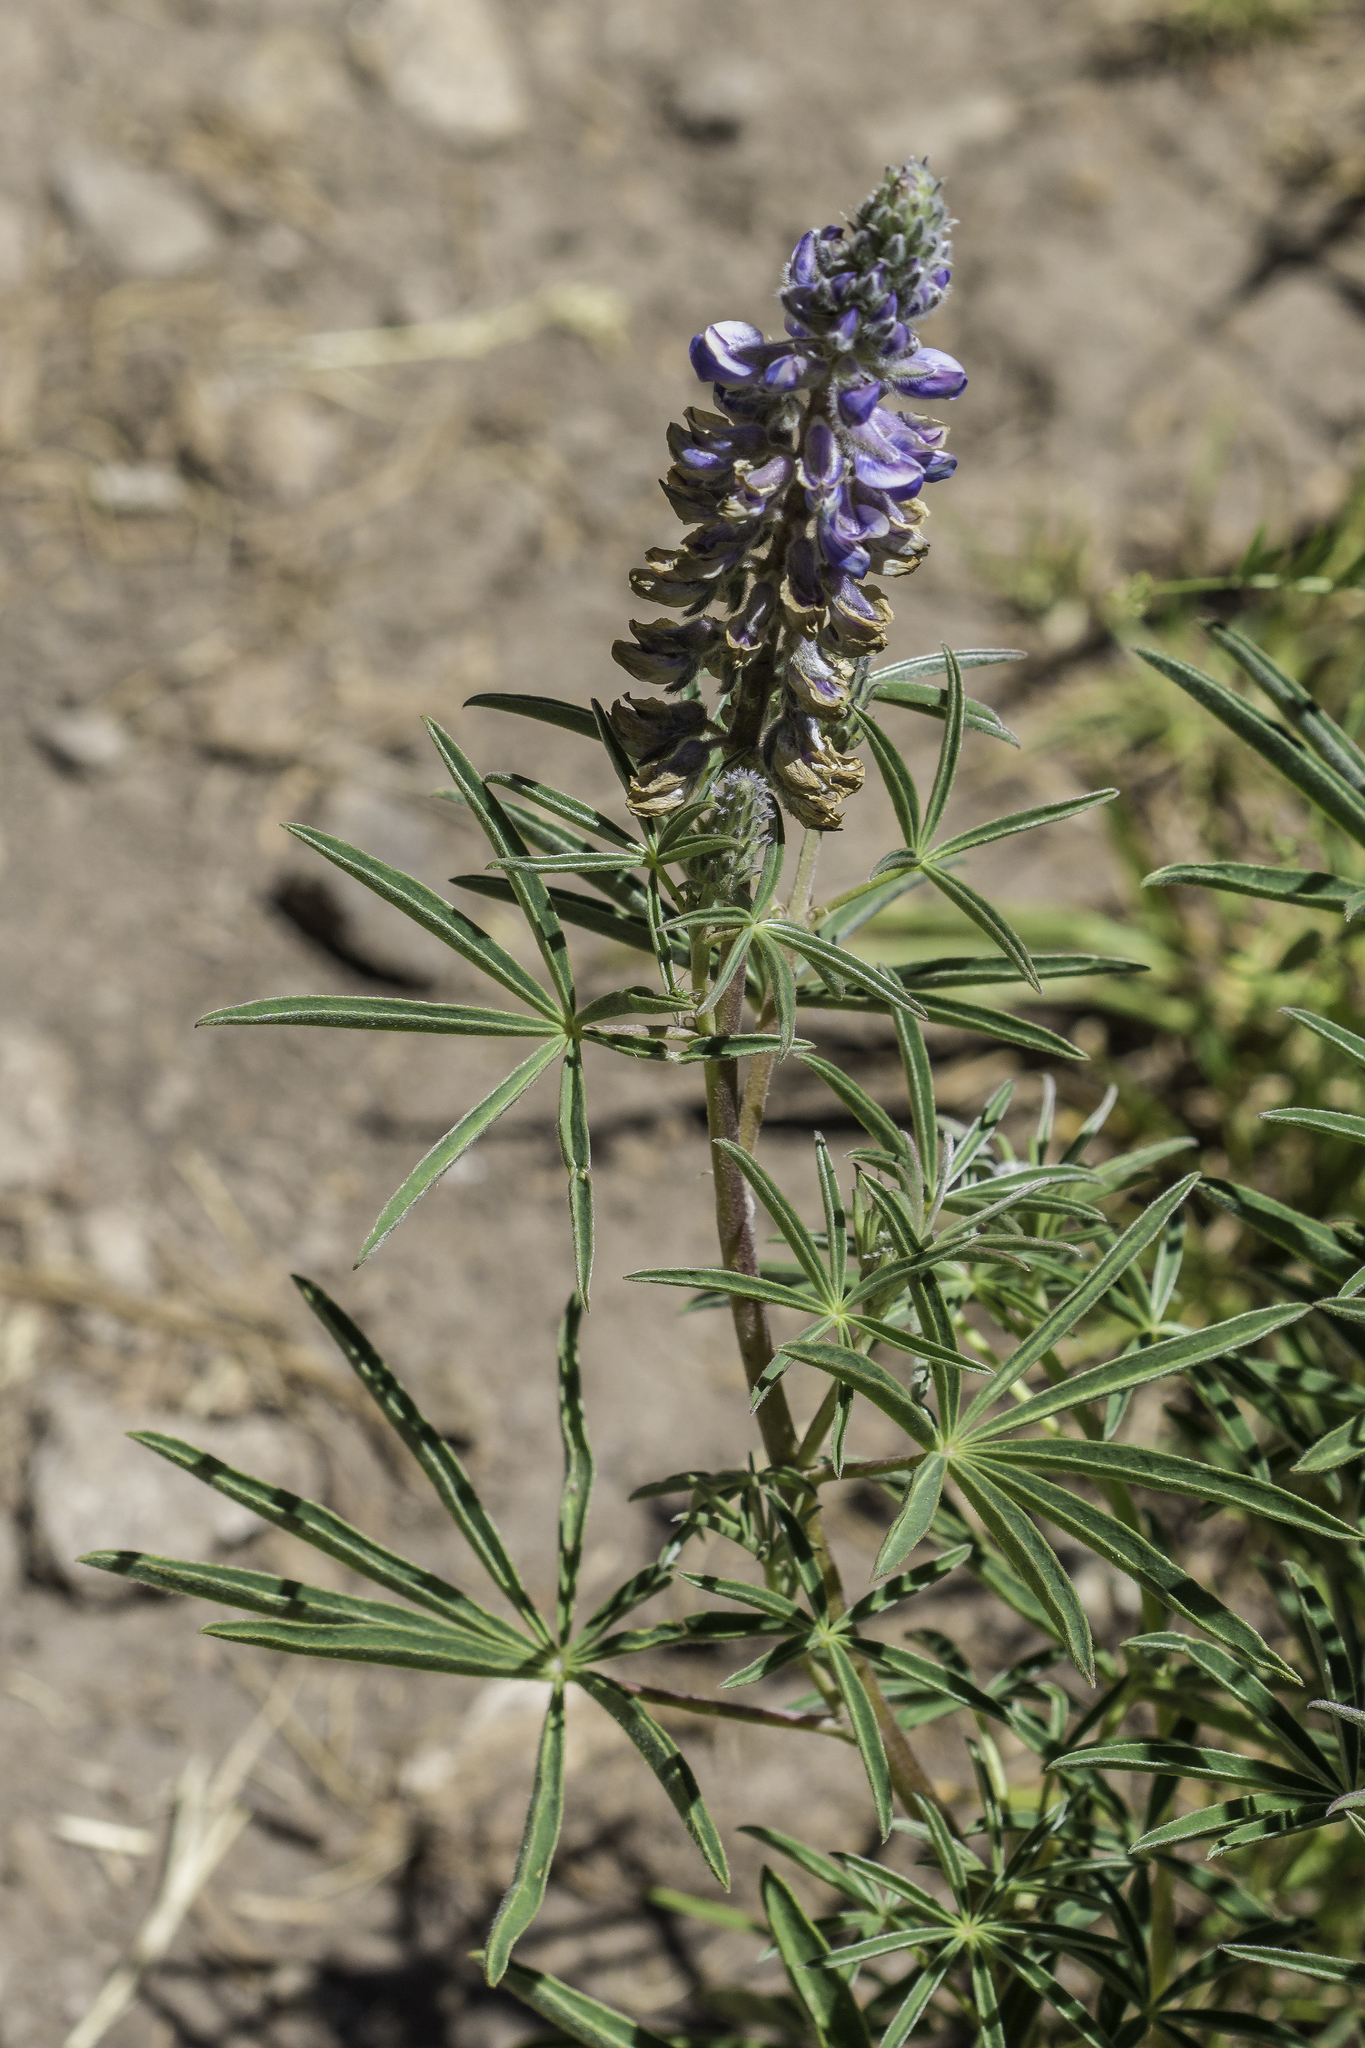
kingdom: Plantae
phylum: Tracheophyta
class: Magnoliopsida
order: Fabales
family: Fabaceae
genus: Lupinus
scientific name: Lupinus argenteus
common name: Silvery lupine
